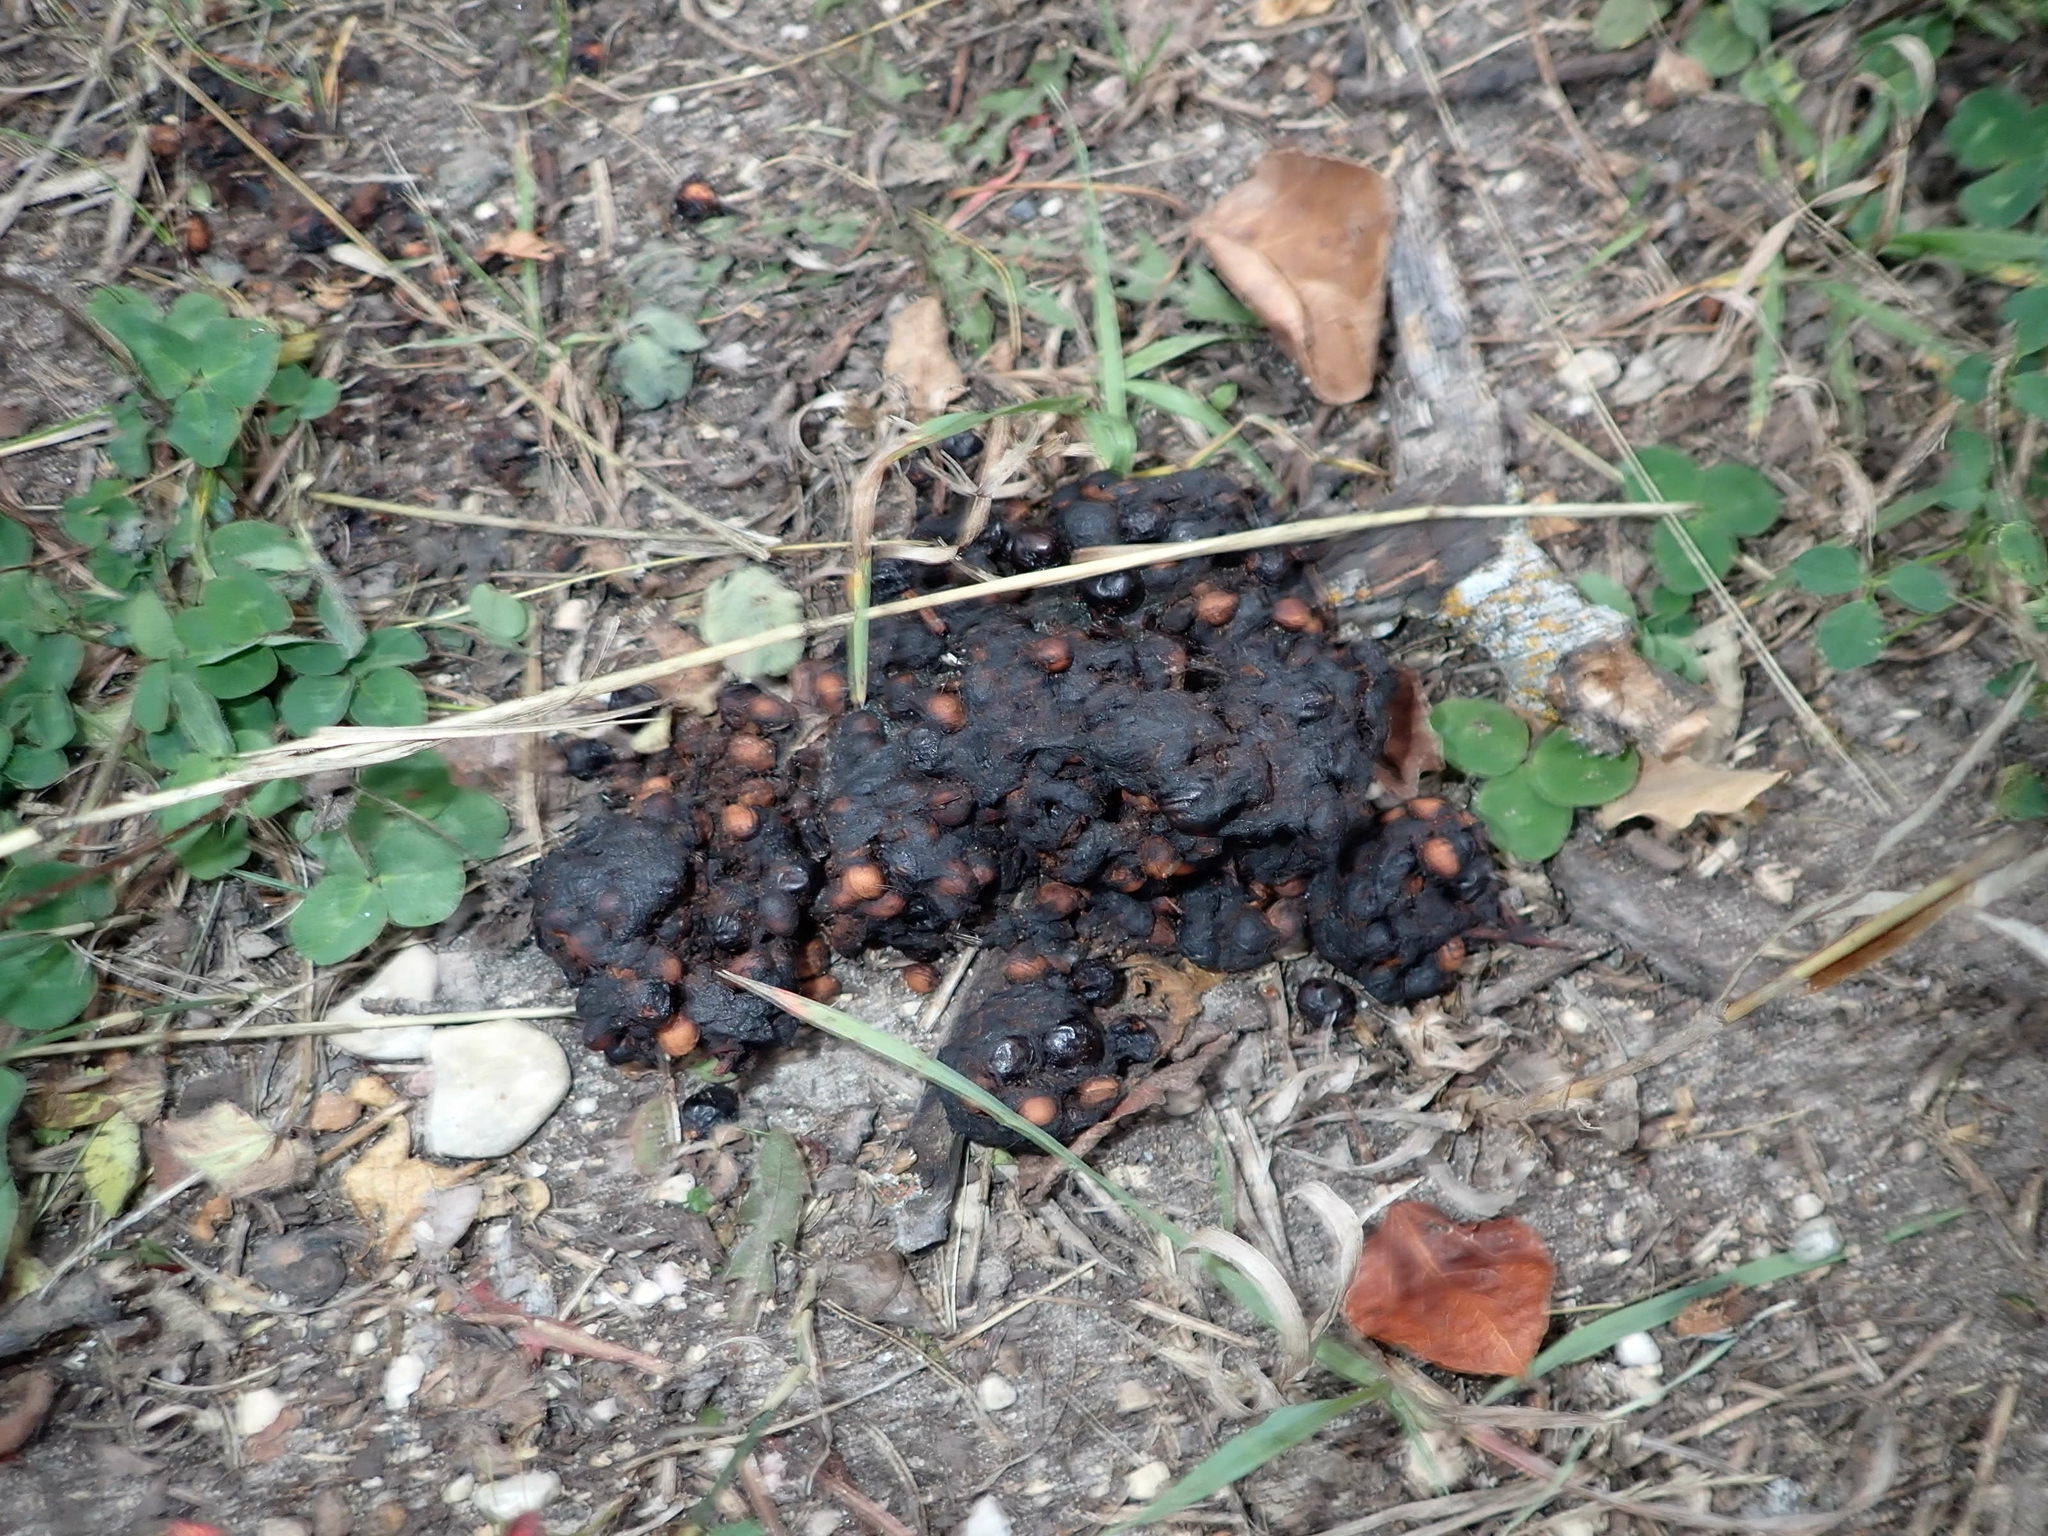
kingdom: Animalia
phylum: Chordata
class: Mammalia
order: Carnivora
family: Ursidae
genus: Ursus
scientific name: Ursus americanus
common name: American black bear
